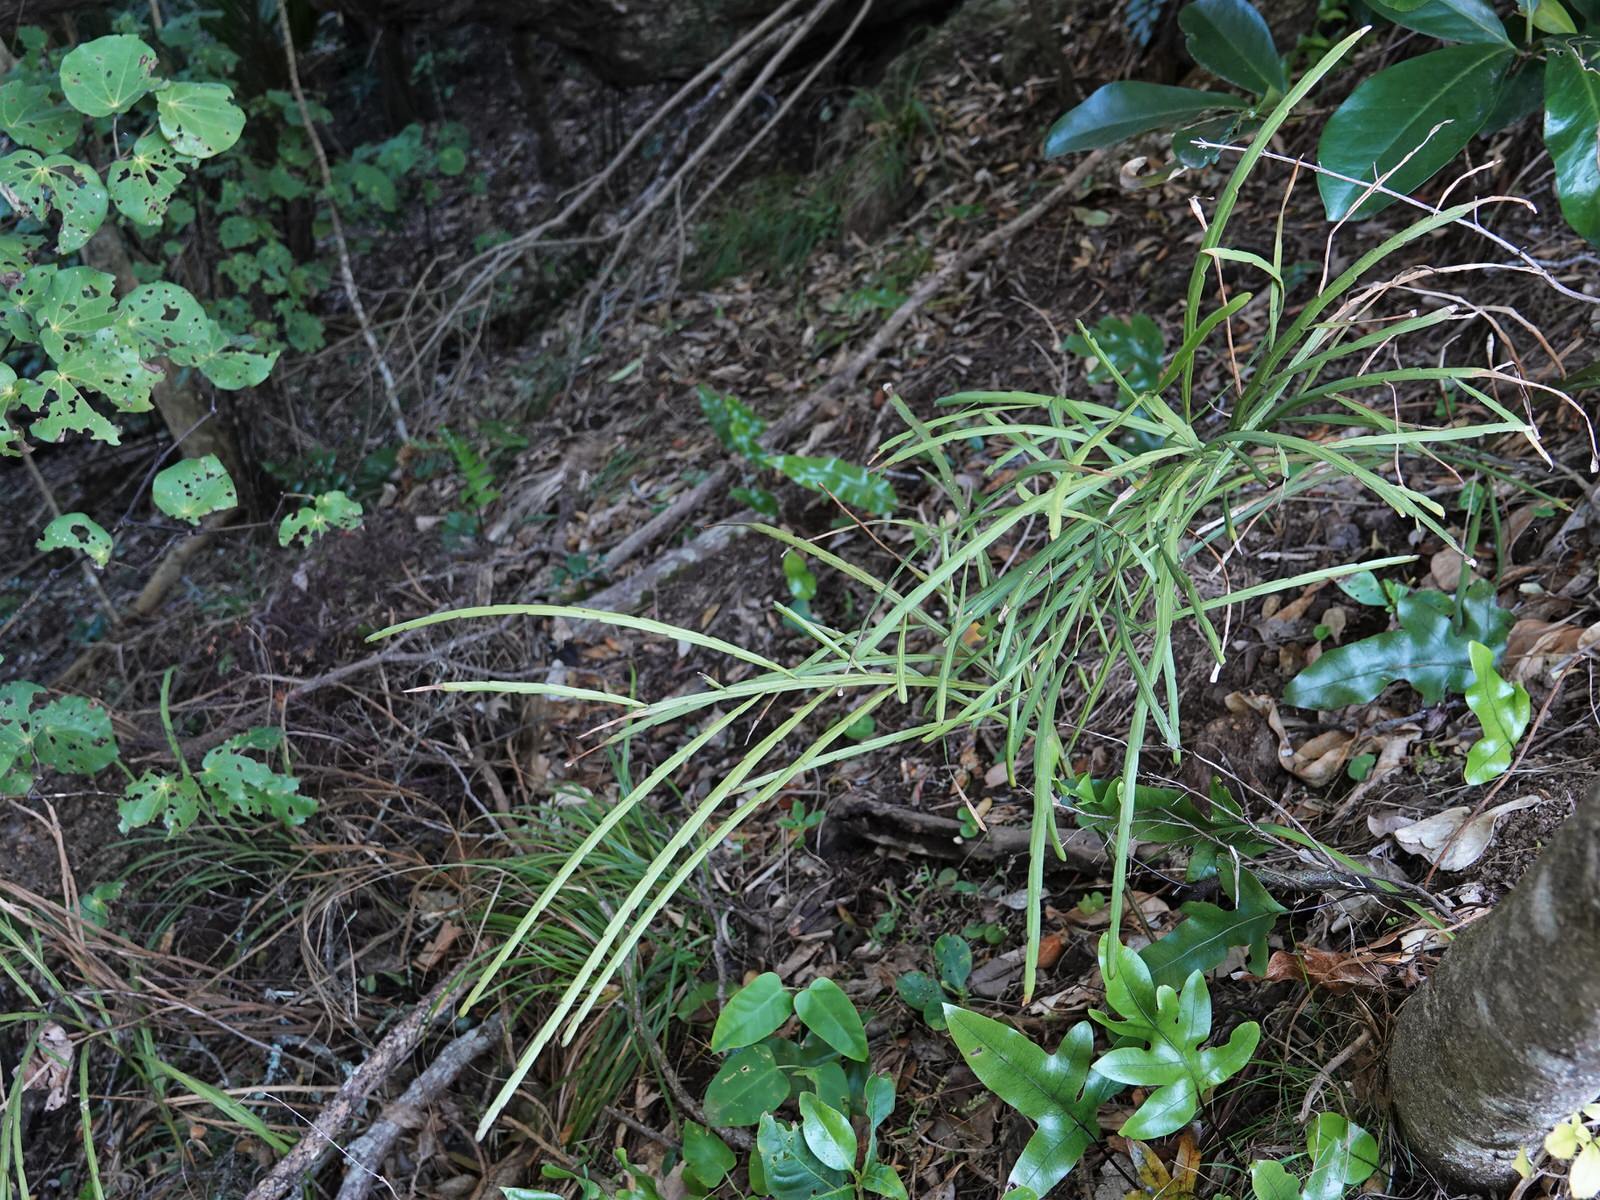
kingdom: Plantae
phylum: Tracheophyta
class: Magnoliopsida
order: Fabales
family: Fabaceae
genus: Carmichaelia
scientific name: Carmichaelia australis
